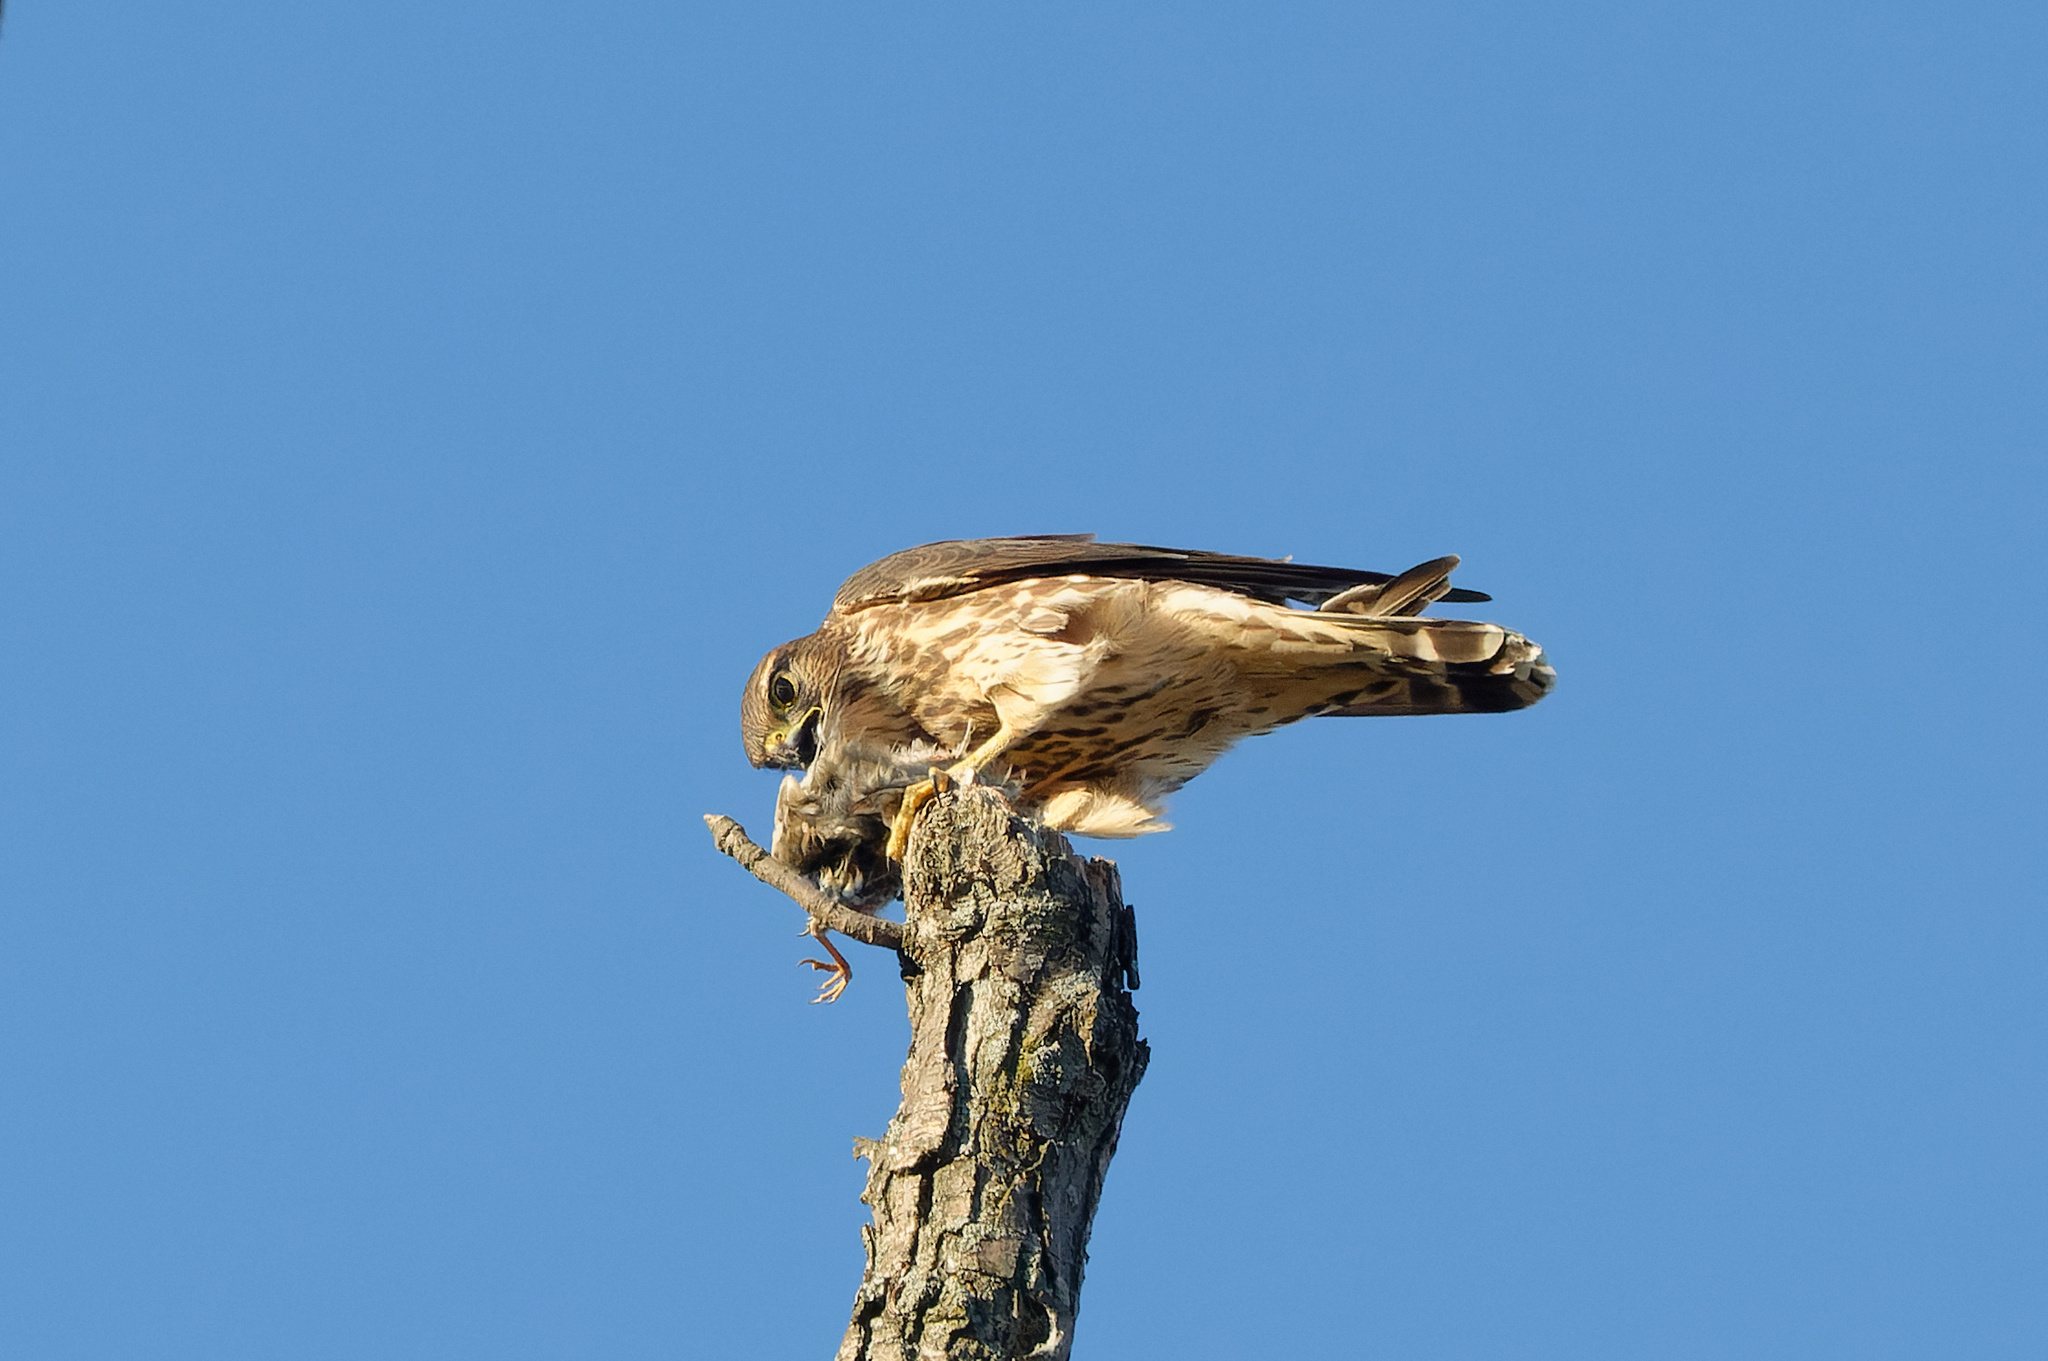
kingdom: Animalia
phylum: Chordata
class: Aves
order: Falconiformes
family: Falconidae
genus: Falco
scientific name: Falco columbarius
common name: Merlin
